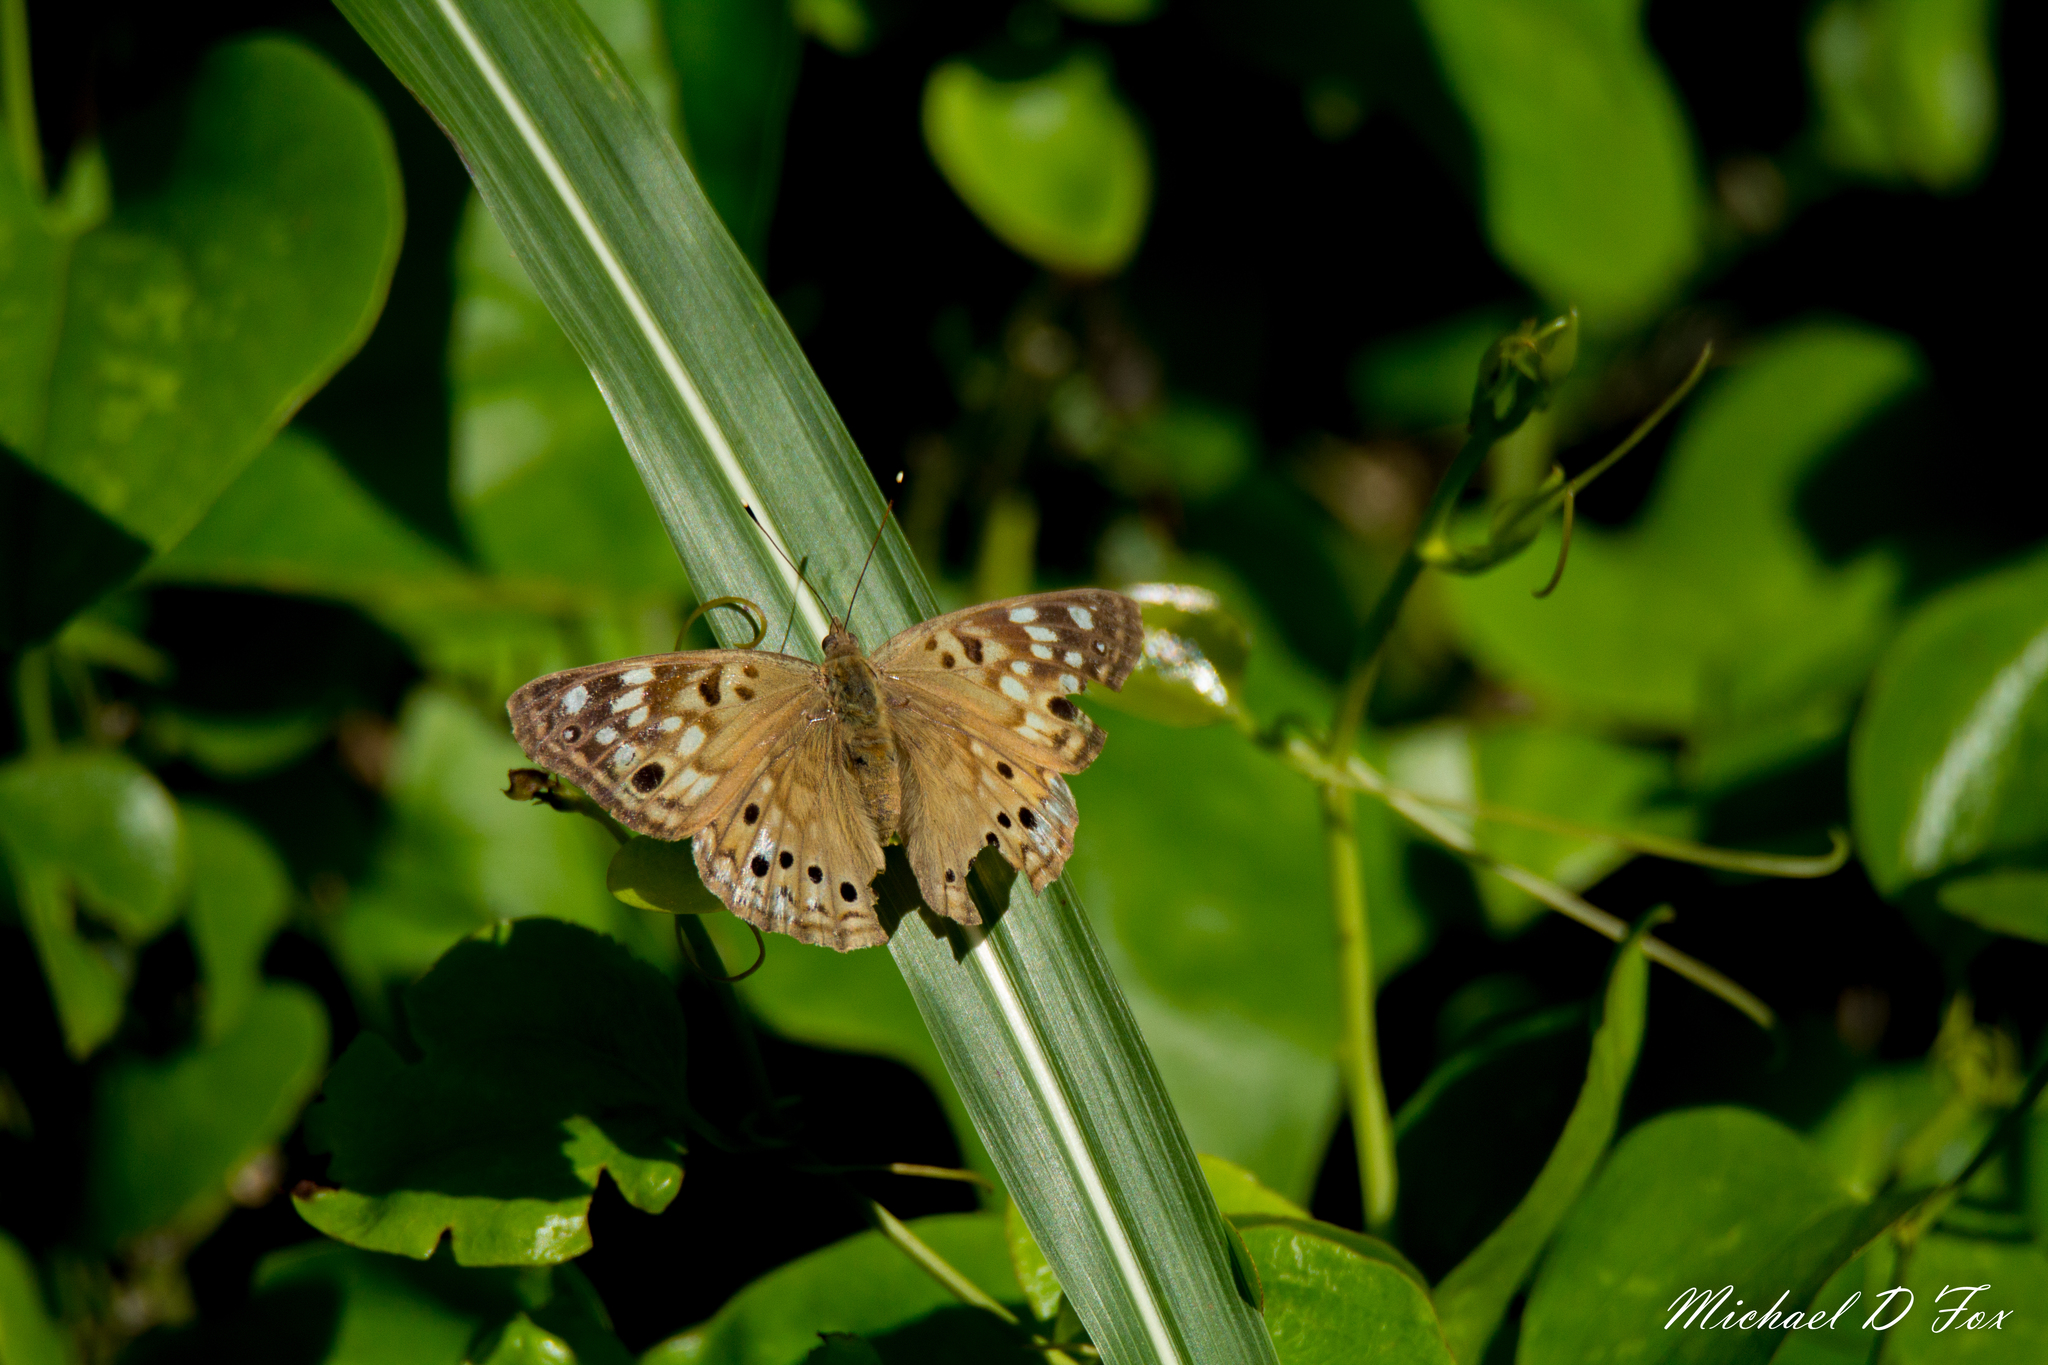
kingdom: Animalia
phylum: Arthropoda
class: Insecta
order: Lepidoptera
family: Nymphalidae
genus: Asterocampa
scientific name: Asterocampa celtis
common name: Hackberry emperor
